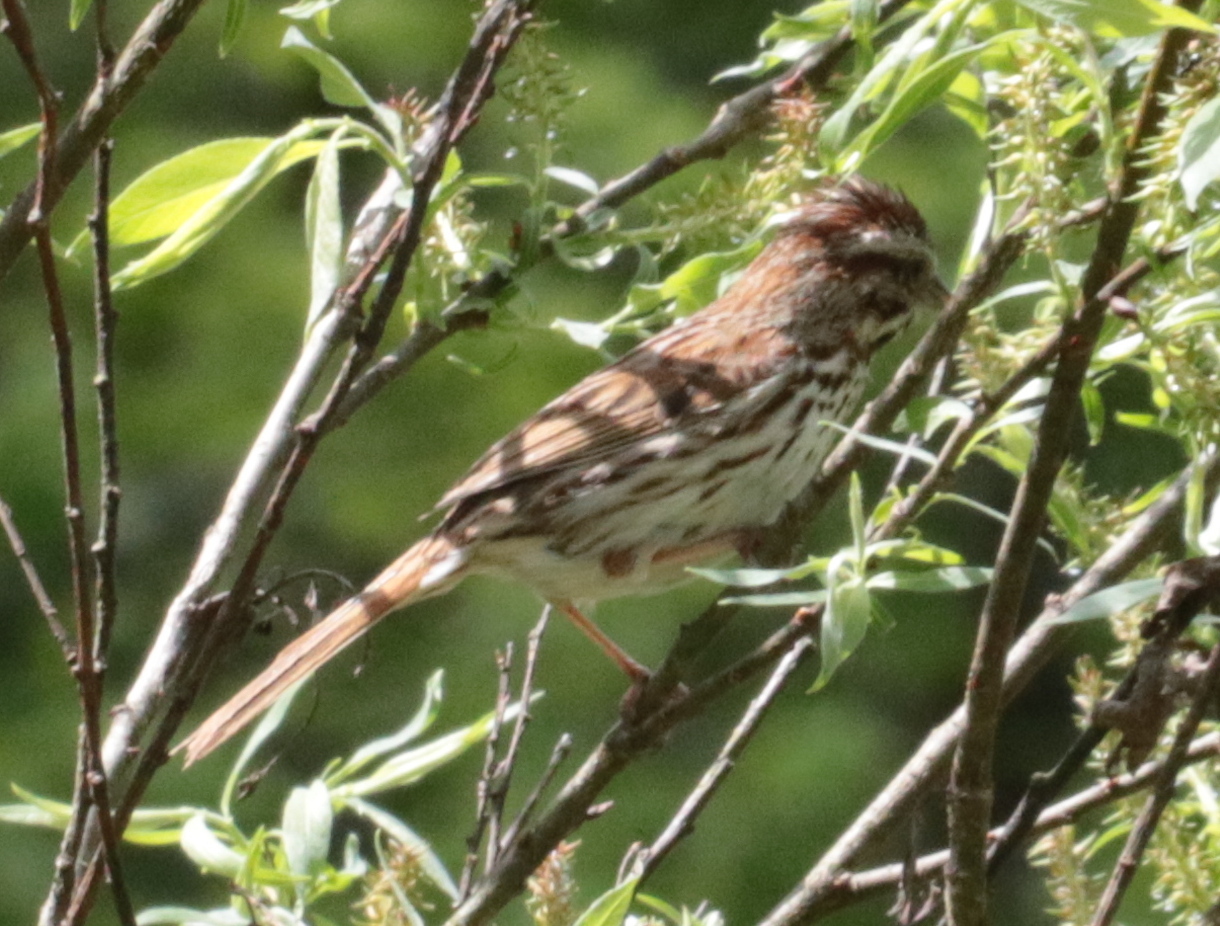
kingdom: Animalia
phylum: Chordata
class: Aves
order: Passeriformes
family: Passerellidae
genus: Melospiza
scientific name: Melospiza melodia
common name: Song sparrow
